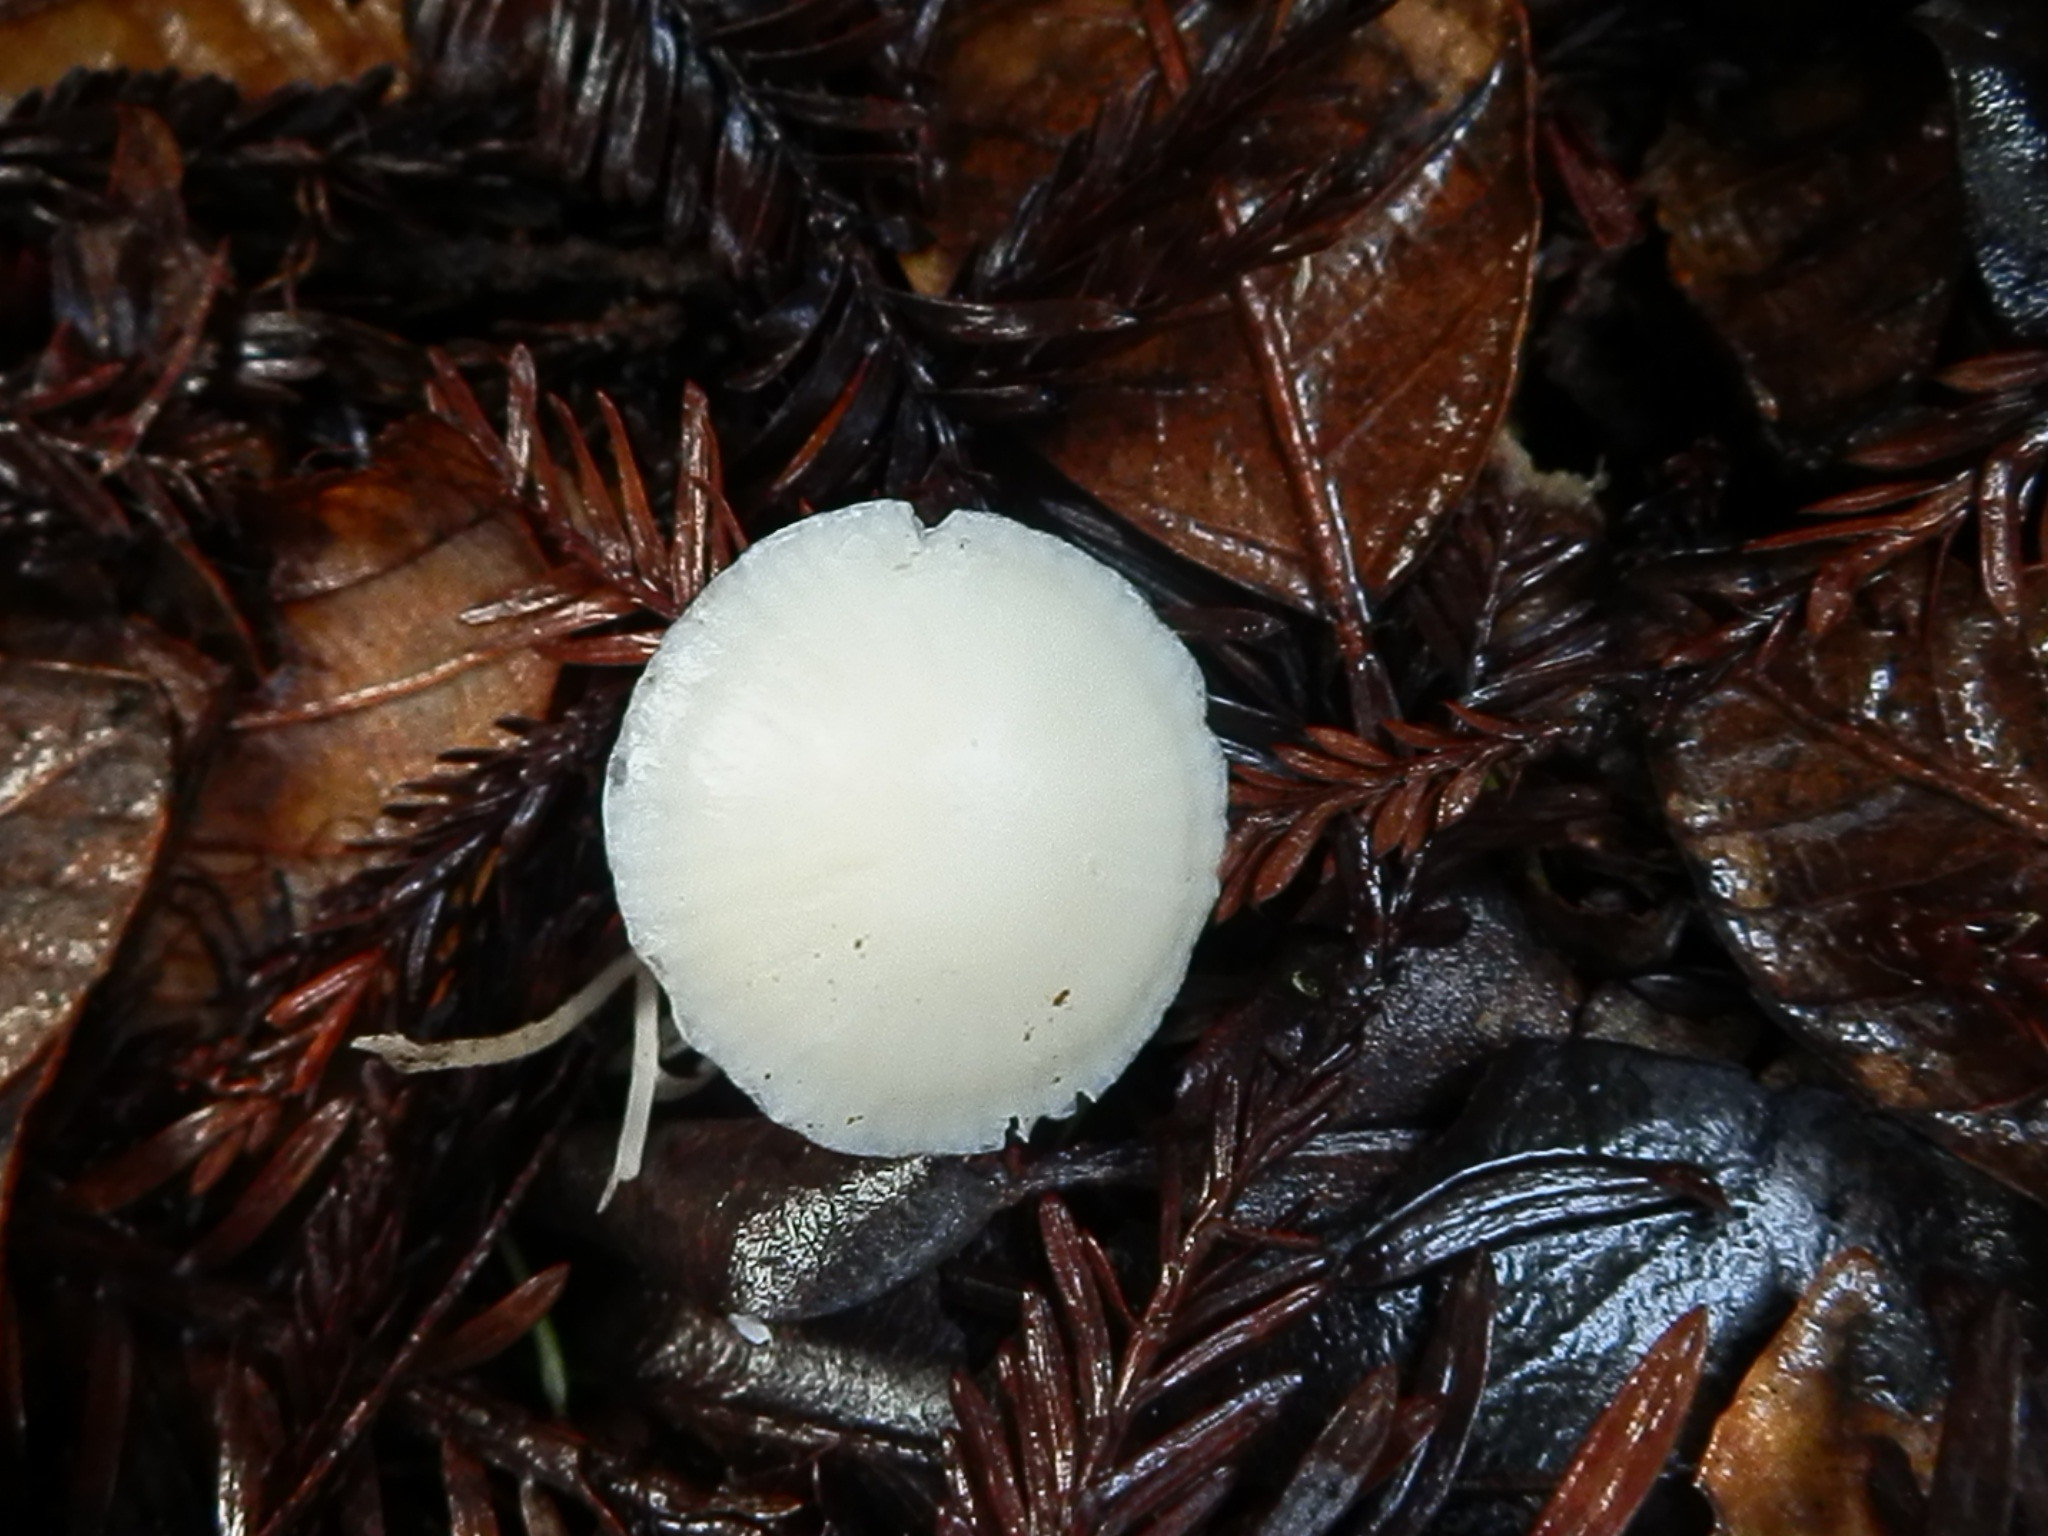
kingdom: Fungi
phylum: Basidiomycota
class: Agaricomycetes
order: Agaricales
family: Hygrophoraceae
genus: Cuphophyllus
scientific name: Cuphophyllus russocoriaceus
